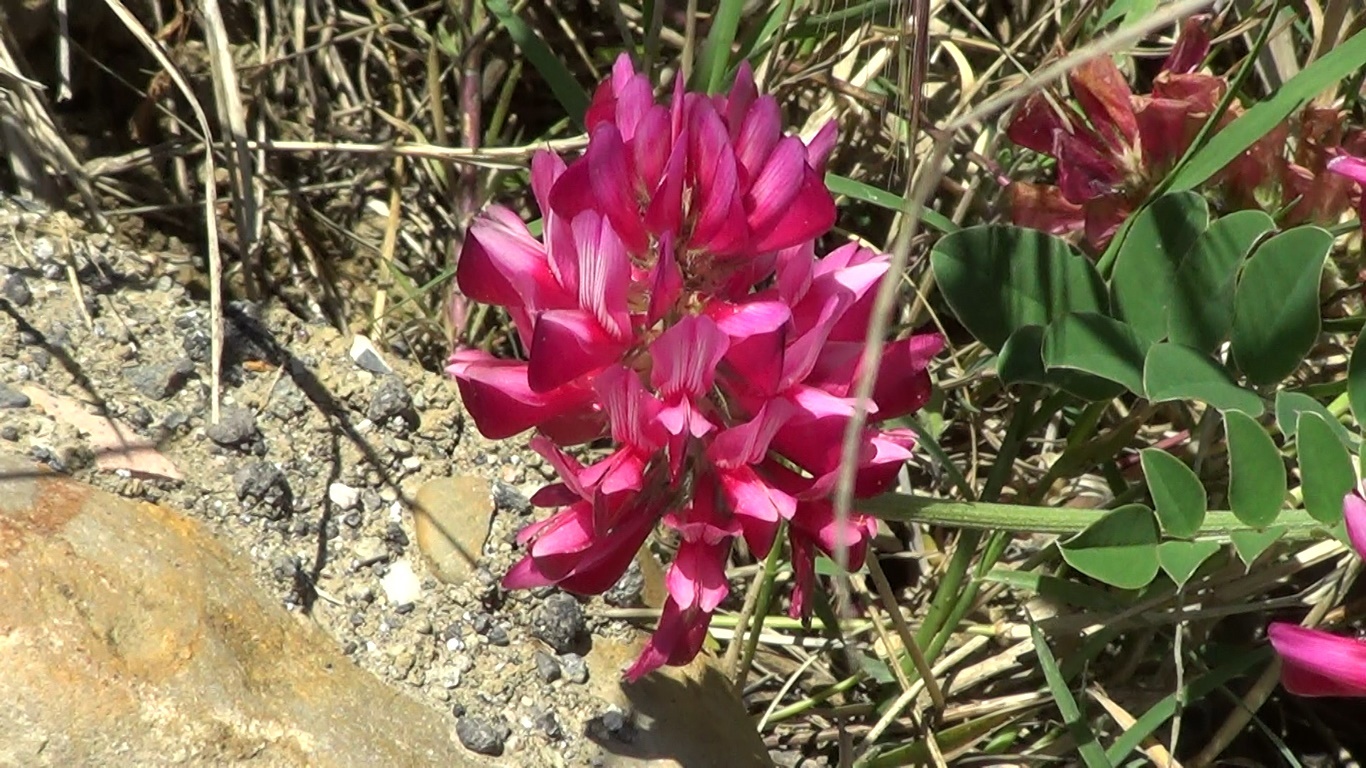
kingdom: Plantae
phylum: Tracheophyta
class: Magnoliopsida
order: Fabales
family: Fabaceae
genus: Sulla
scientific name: Sulla coronaria
